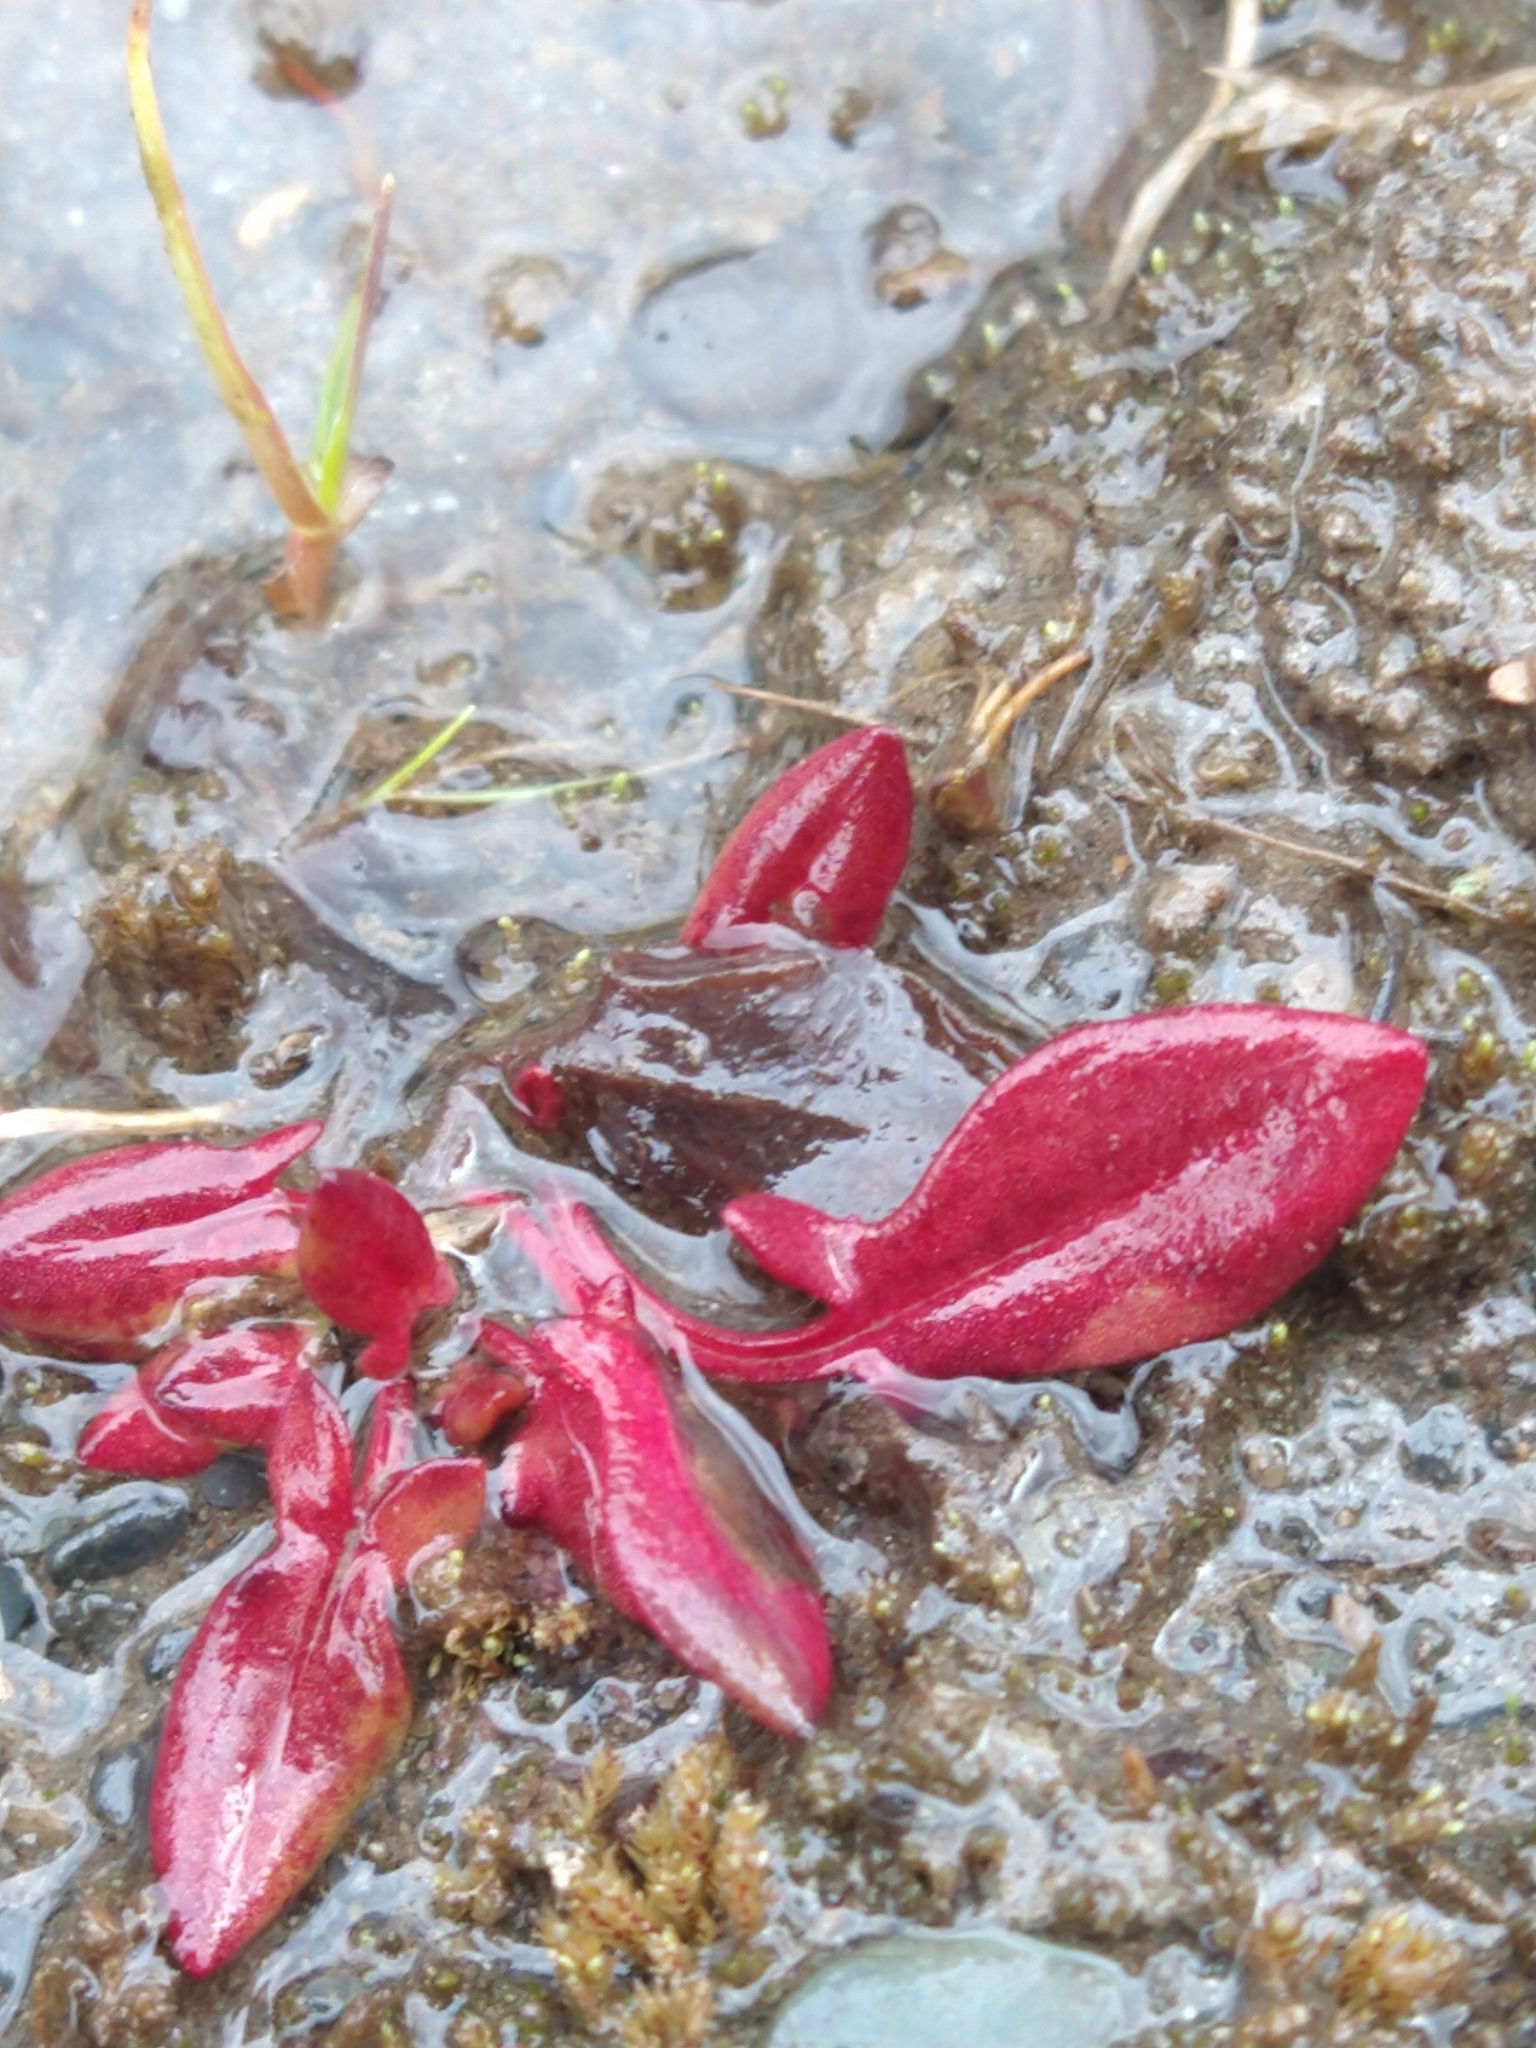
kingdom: Plantae
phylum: Tracheophyta
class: Magnoliopsida
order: Caryophyllales
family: Polygonaceae
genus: Rumex
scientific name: Rumex acetosella
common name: Common sheep sorrel
